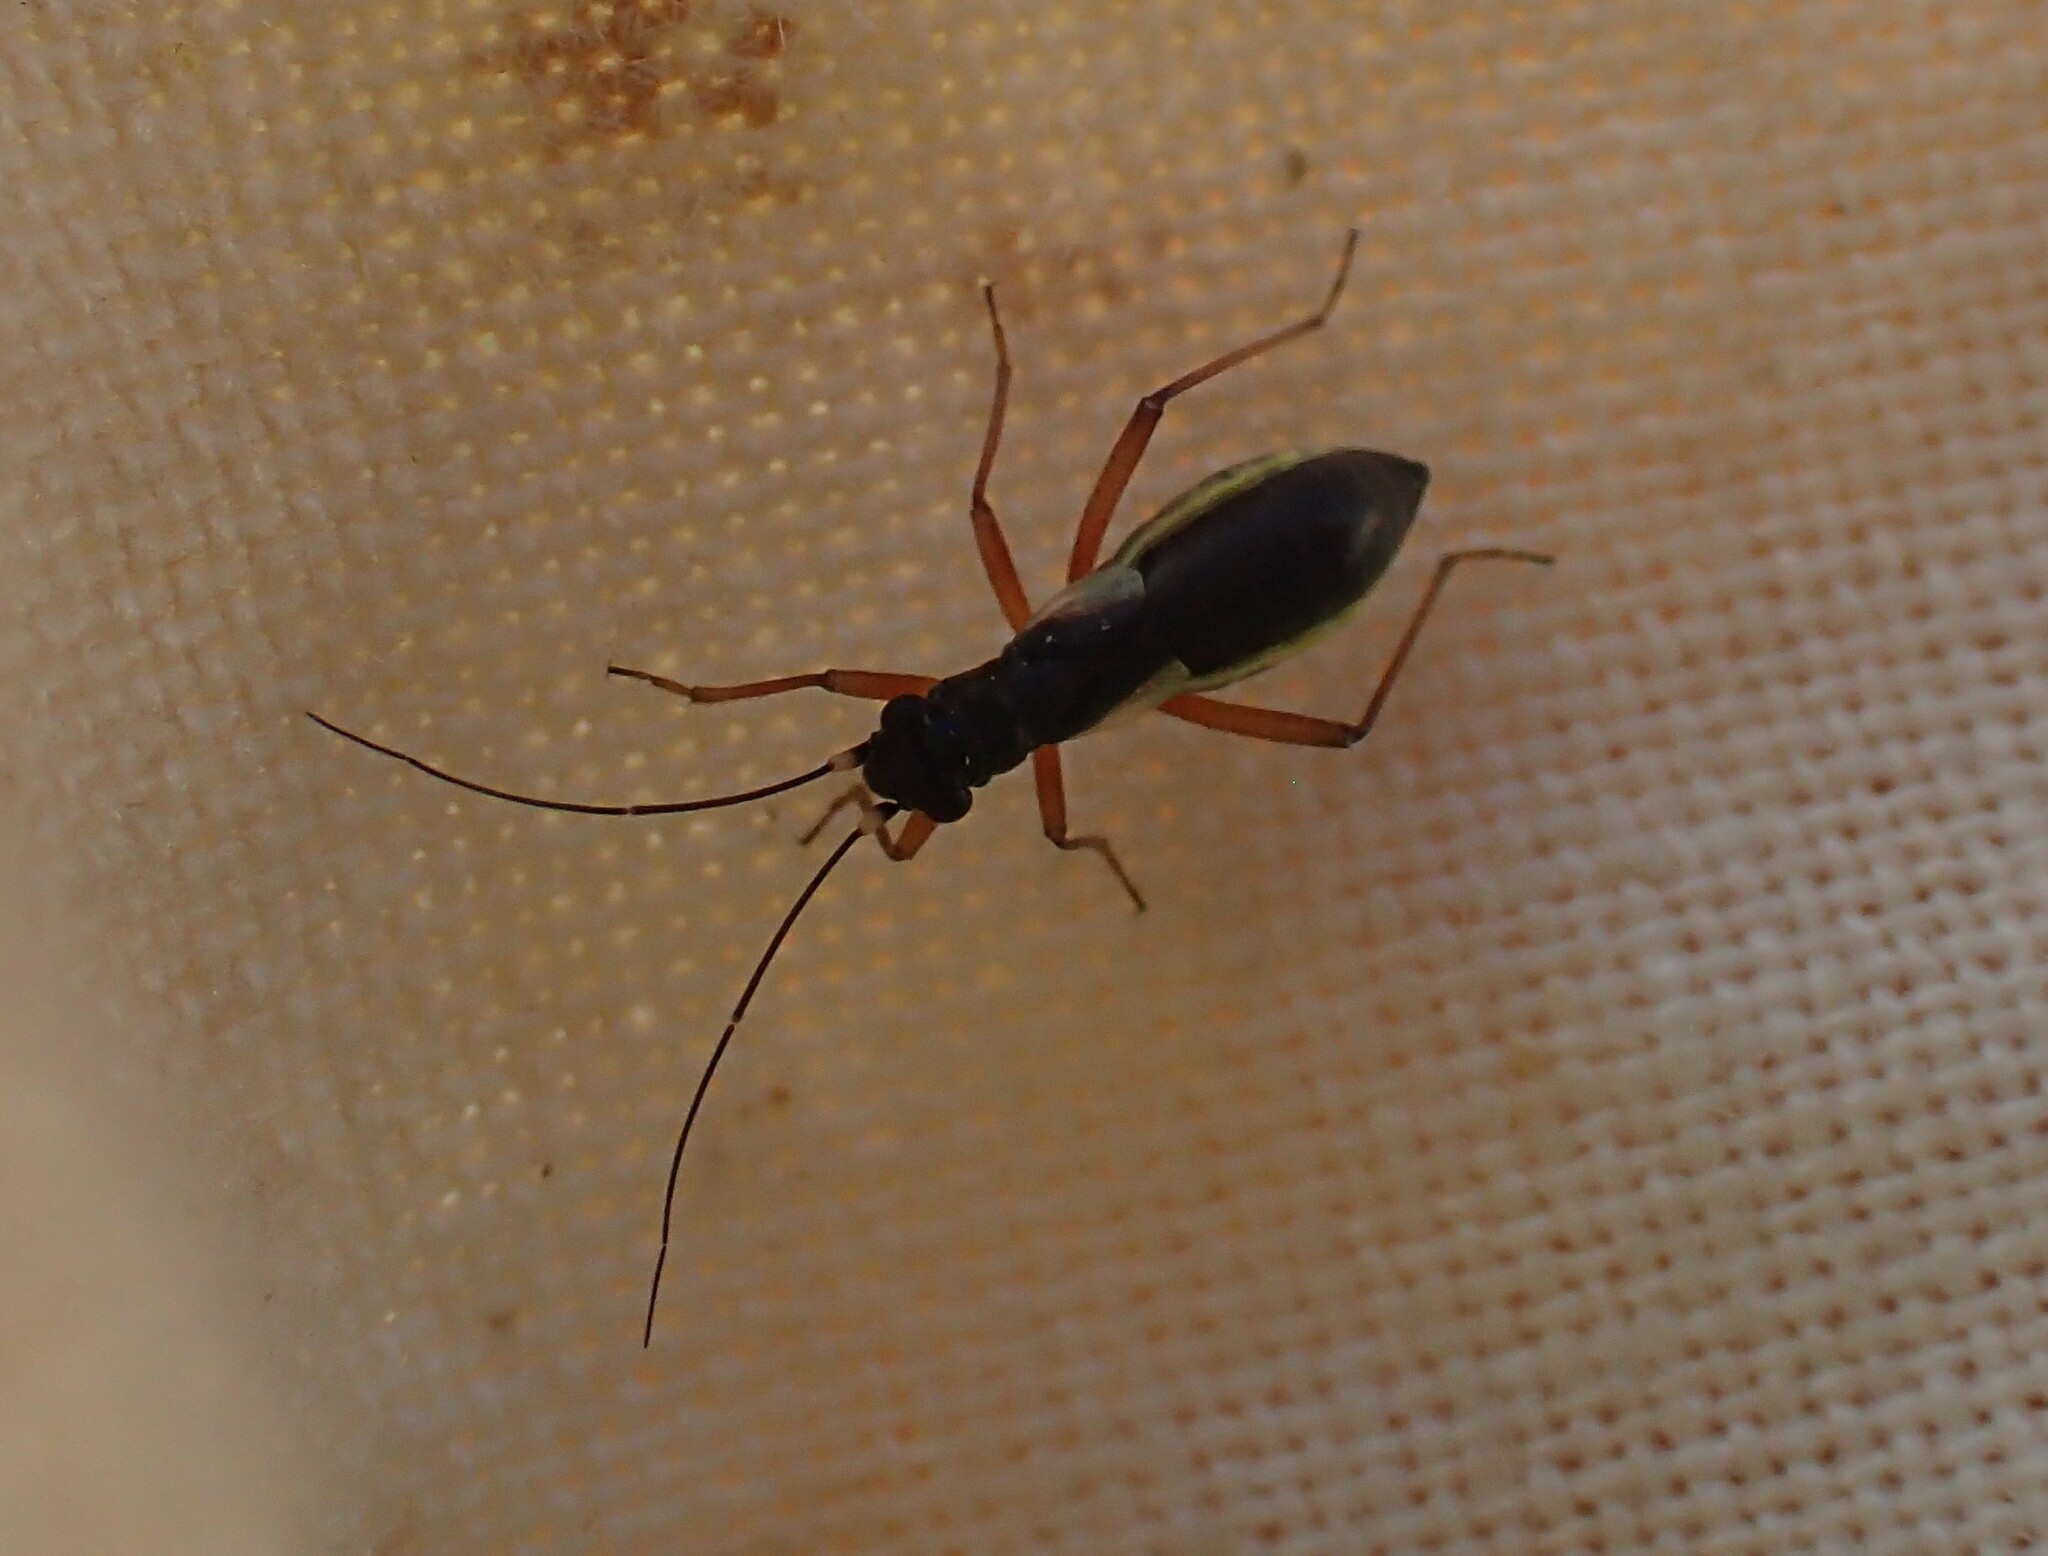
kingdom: Animalia
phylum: Arthropoda
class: Insecta
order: Hemiptera
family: Miridae
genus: Pithanus
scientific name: Pithanus maerkelii
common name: Plant bug
